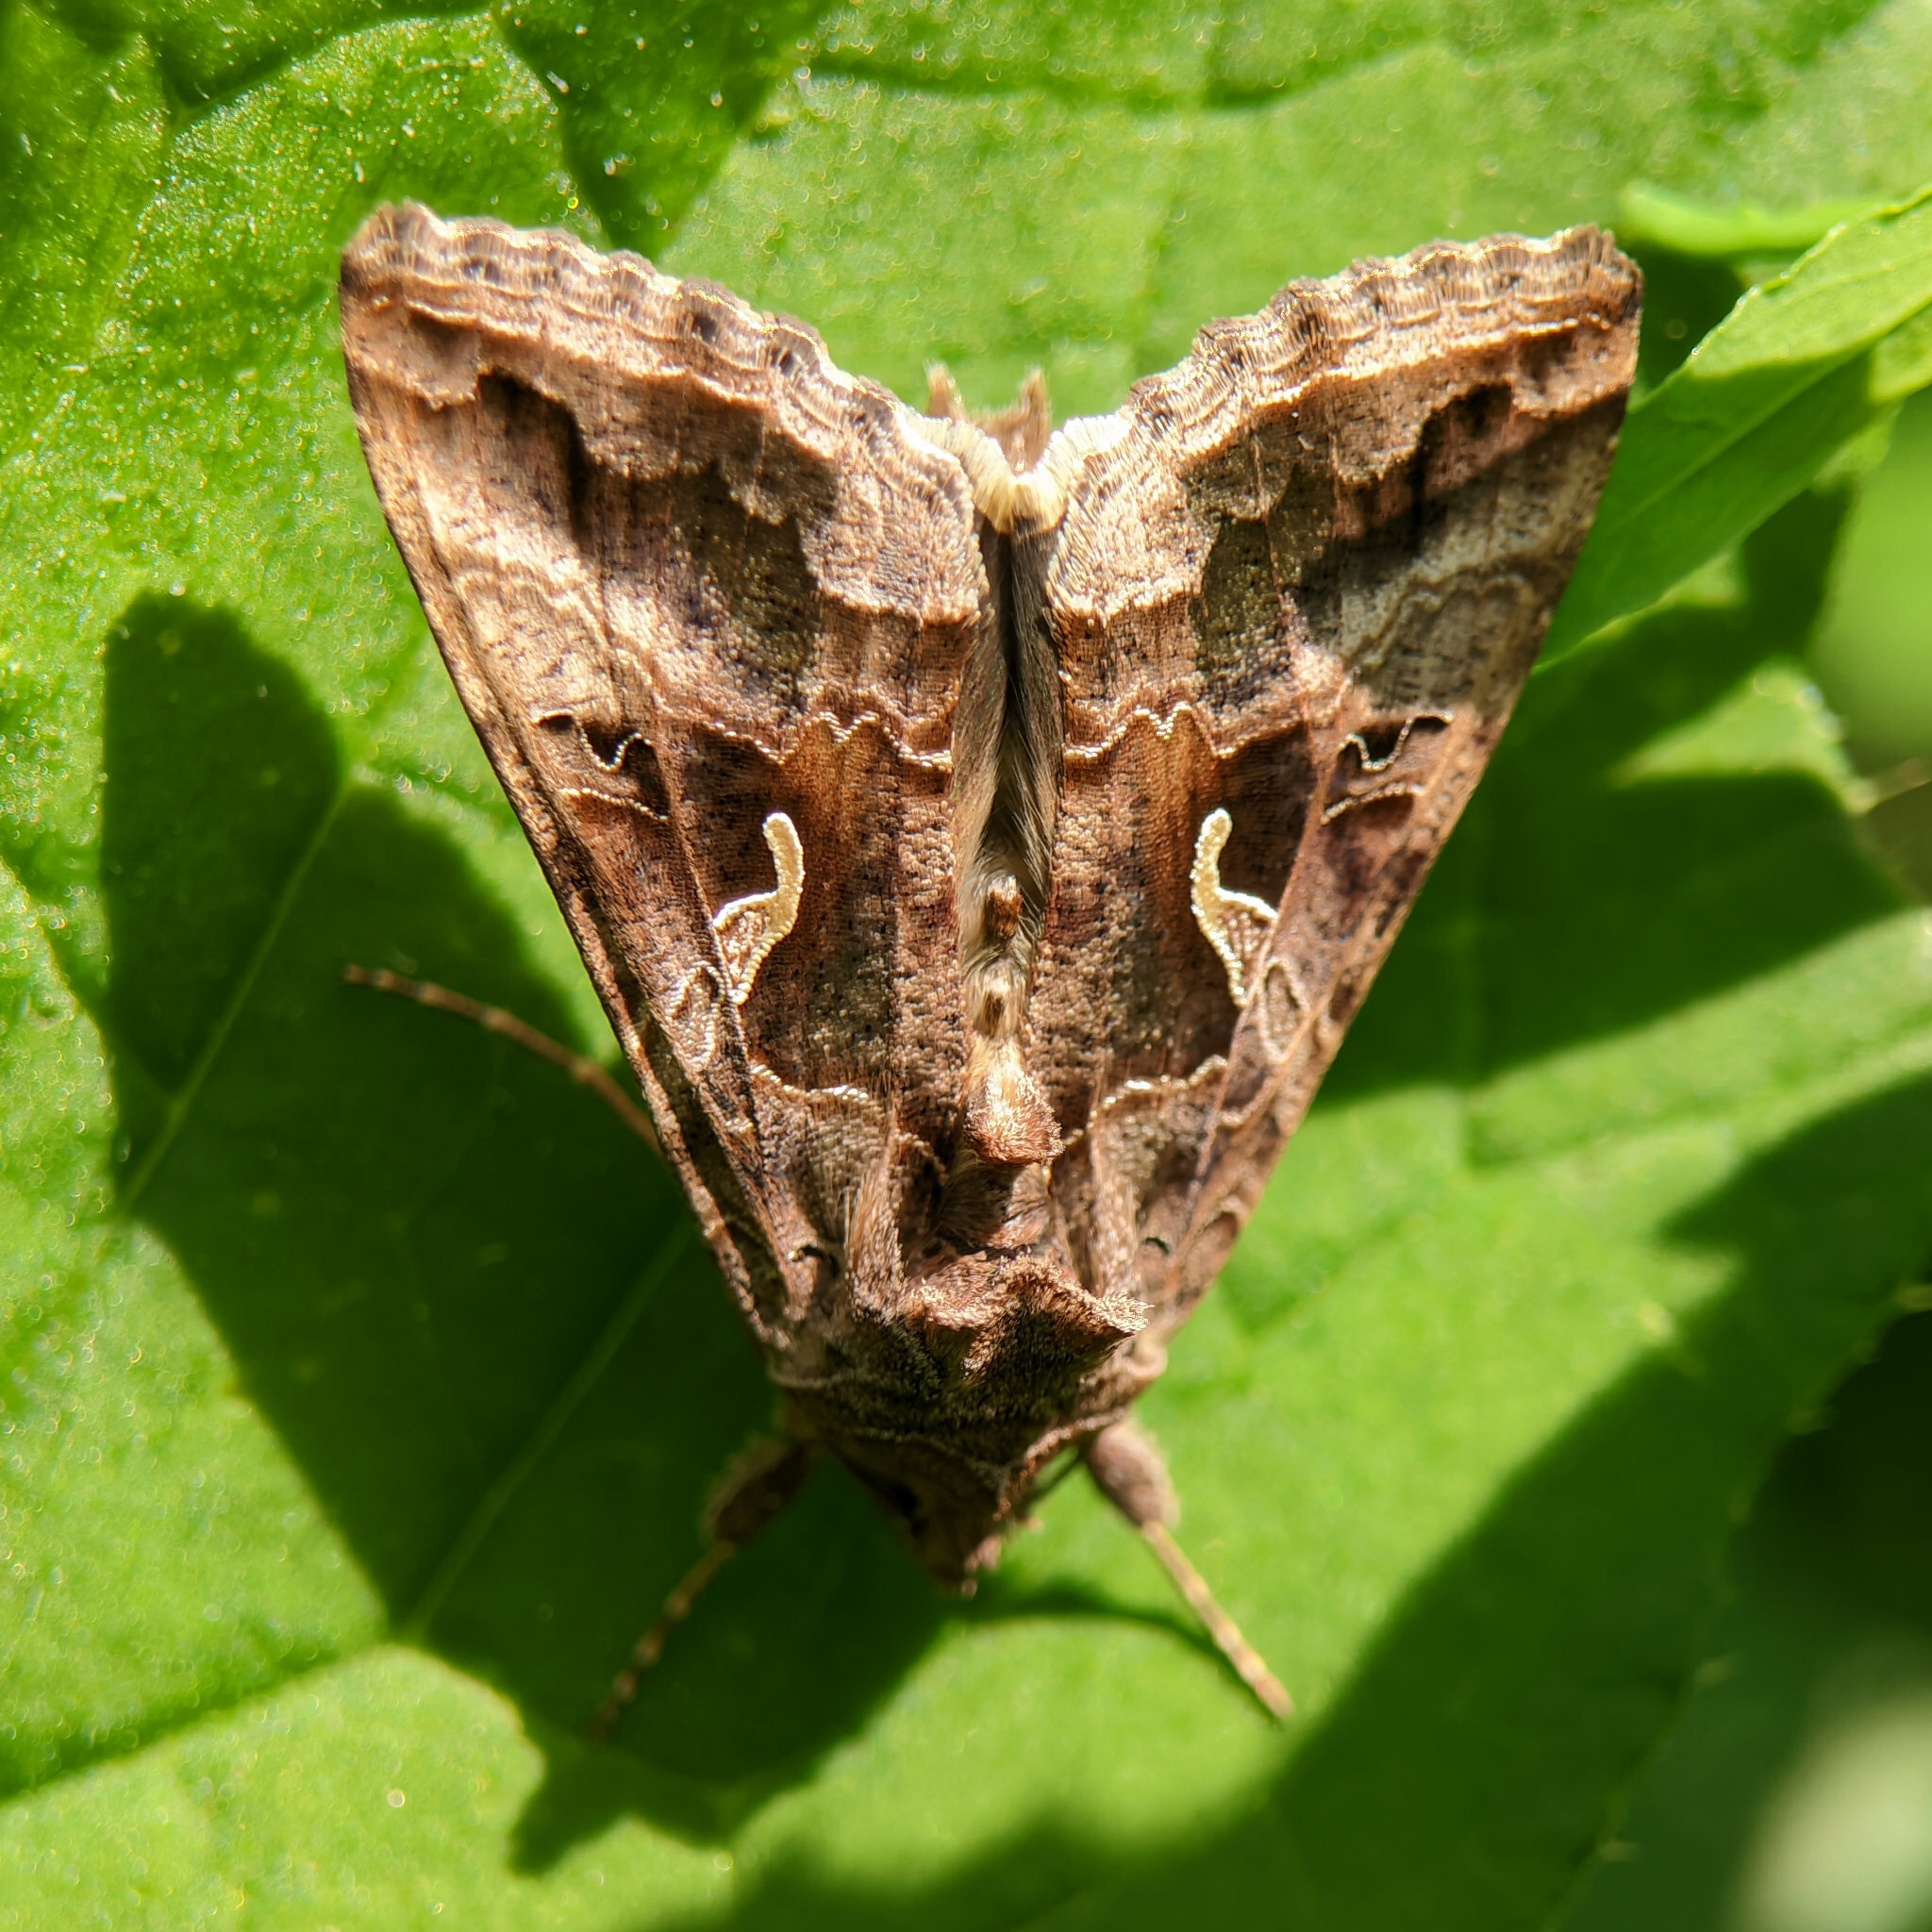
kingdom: Animalia
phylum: Arthropoda
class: Insecta
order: Lepidoptera
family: Noctuidae
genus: Autographa
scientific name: Autographa gamma
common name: Silver y
